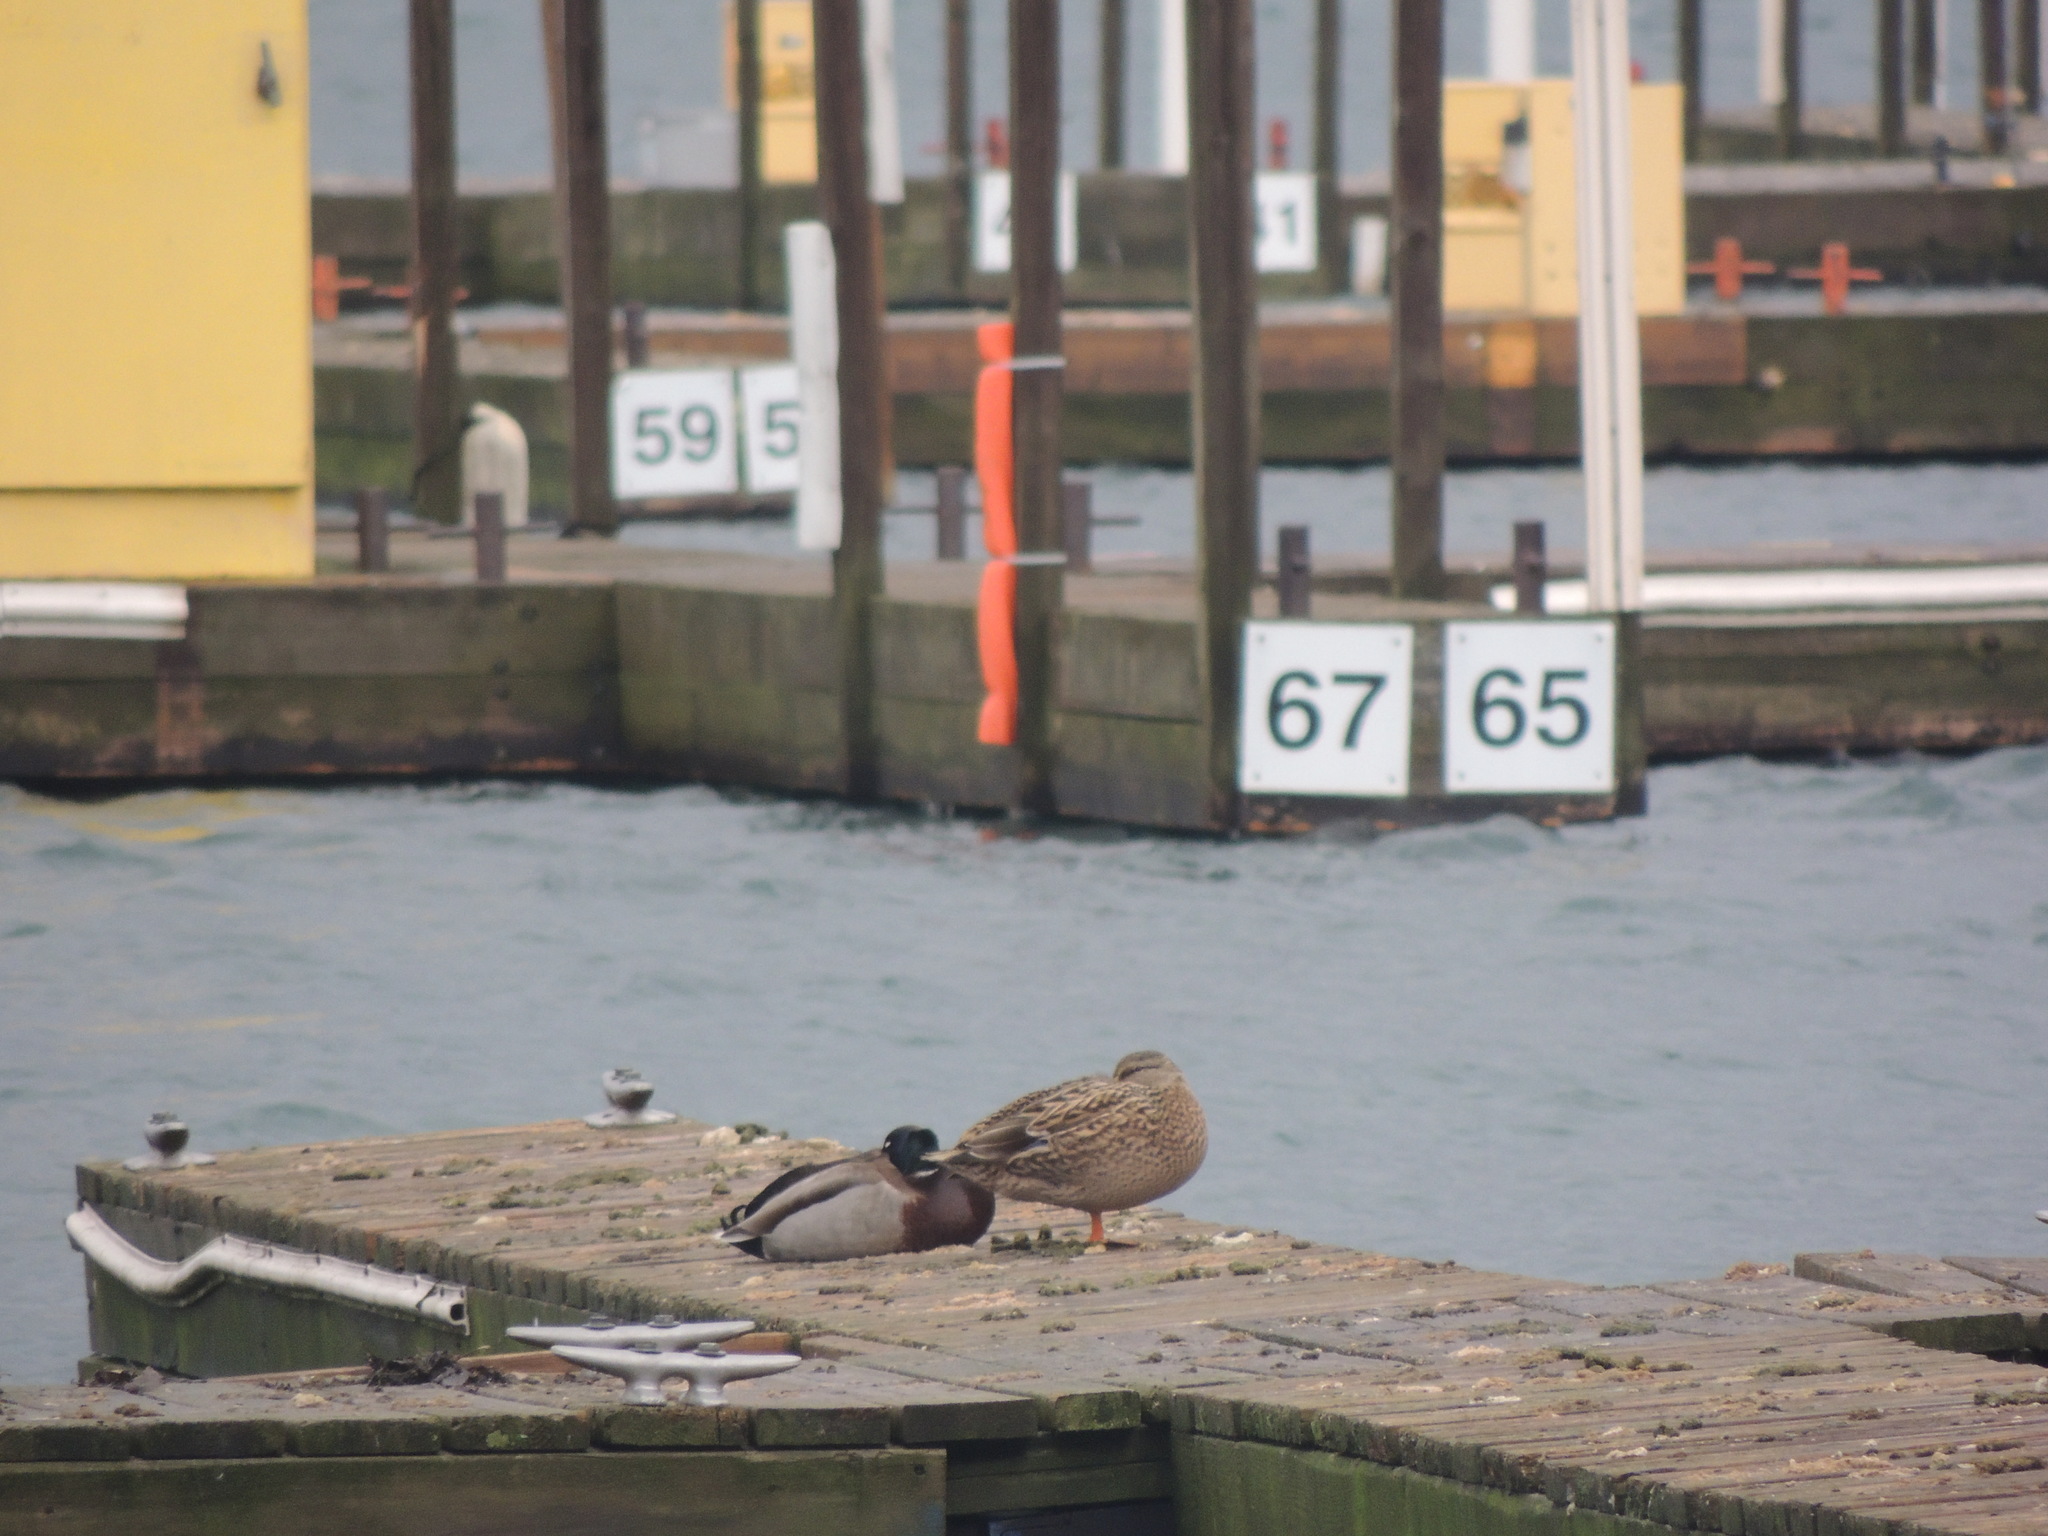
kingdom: Animalia
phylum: Chordata
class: Aves
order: Anseriformes
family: Anatidae
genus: Anas
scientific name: Anas platyrhynchos
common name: Mallard
